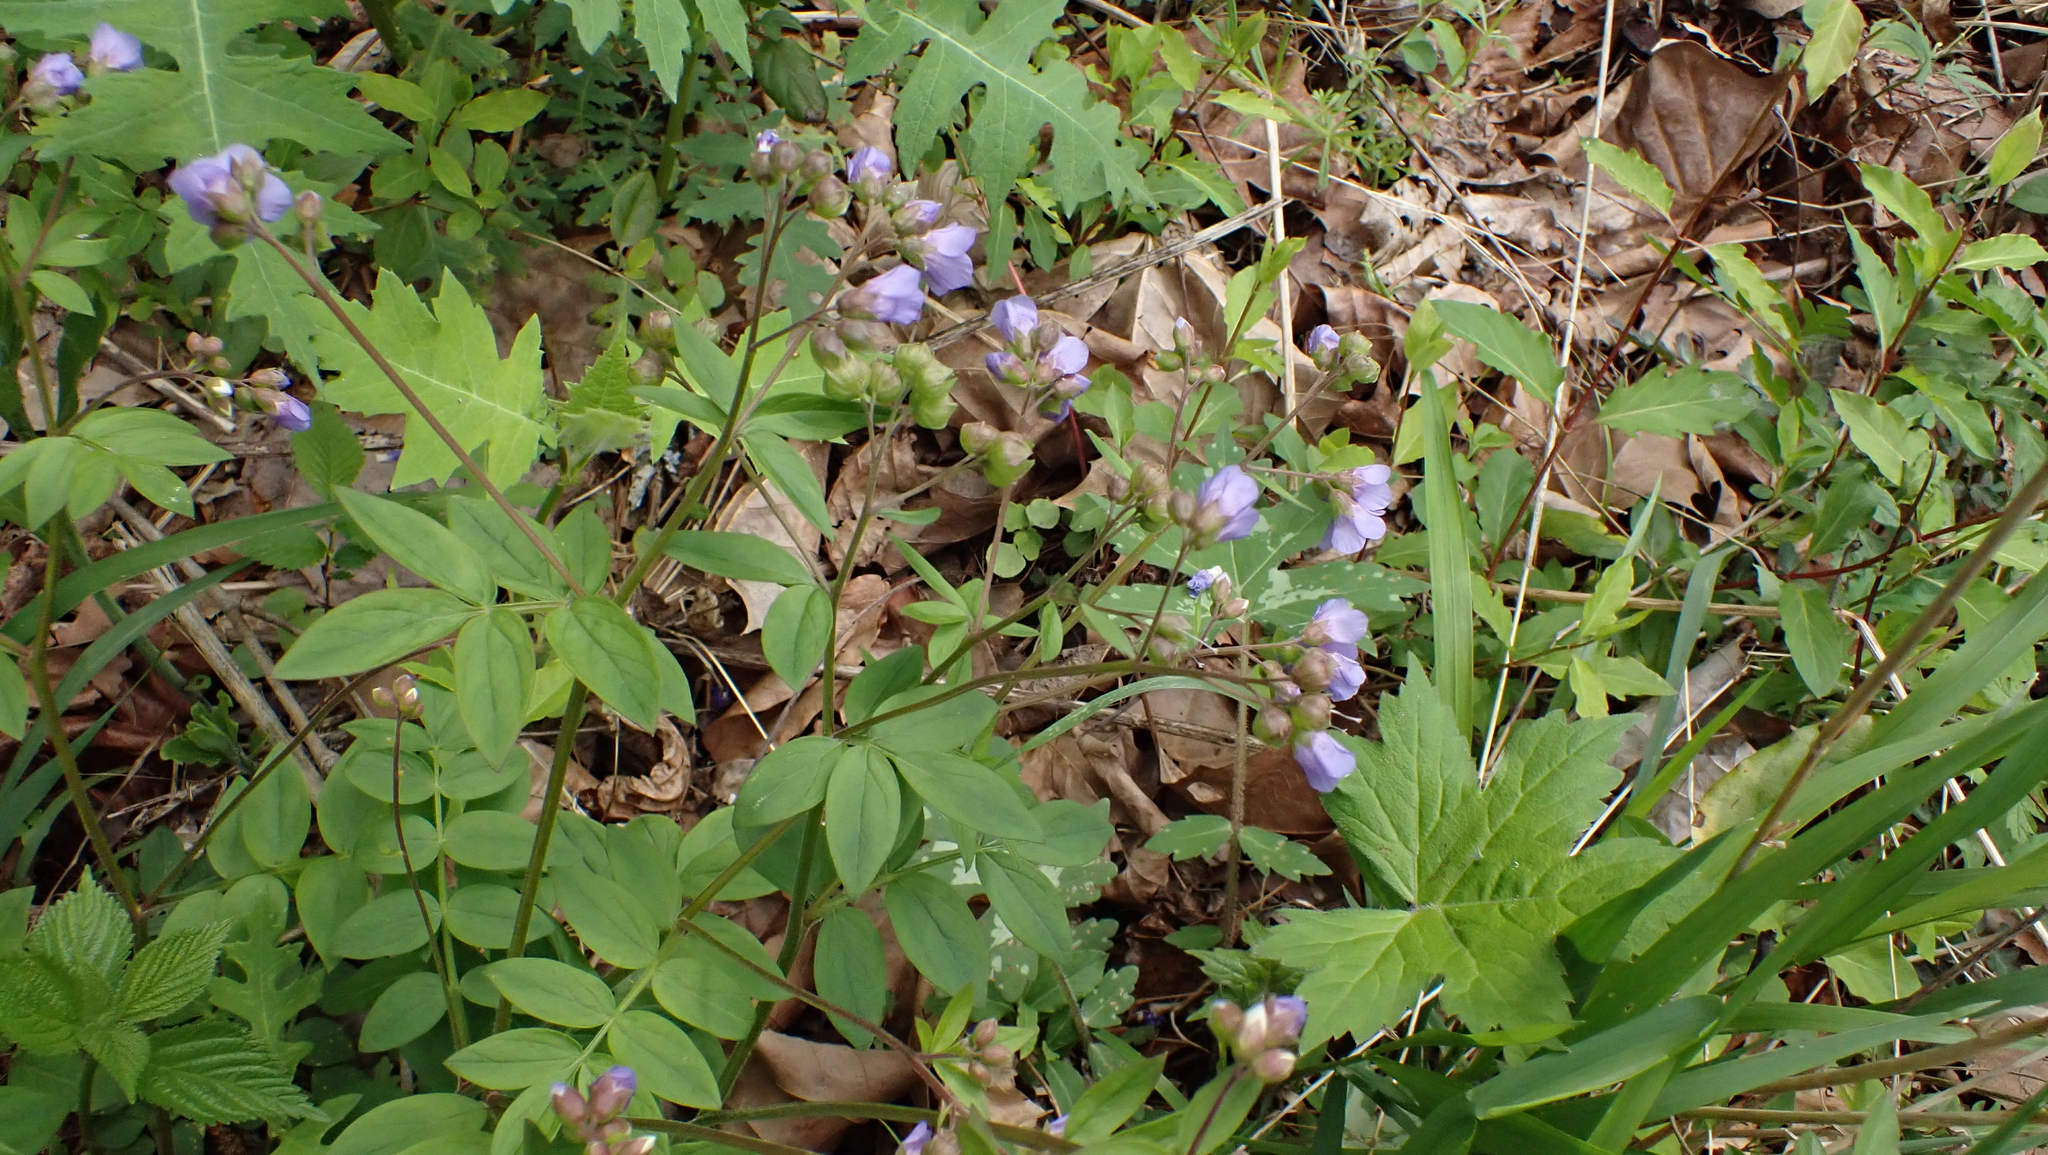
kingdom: Plantae
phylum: Tracheophyta
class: Magnoliopsida
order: Ericales
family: Polemoniaceae
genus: Polemonium
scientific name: Polemonium reptans
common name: Creeping jacob's-ladder
